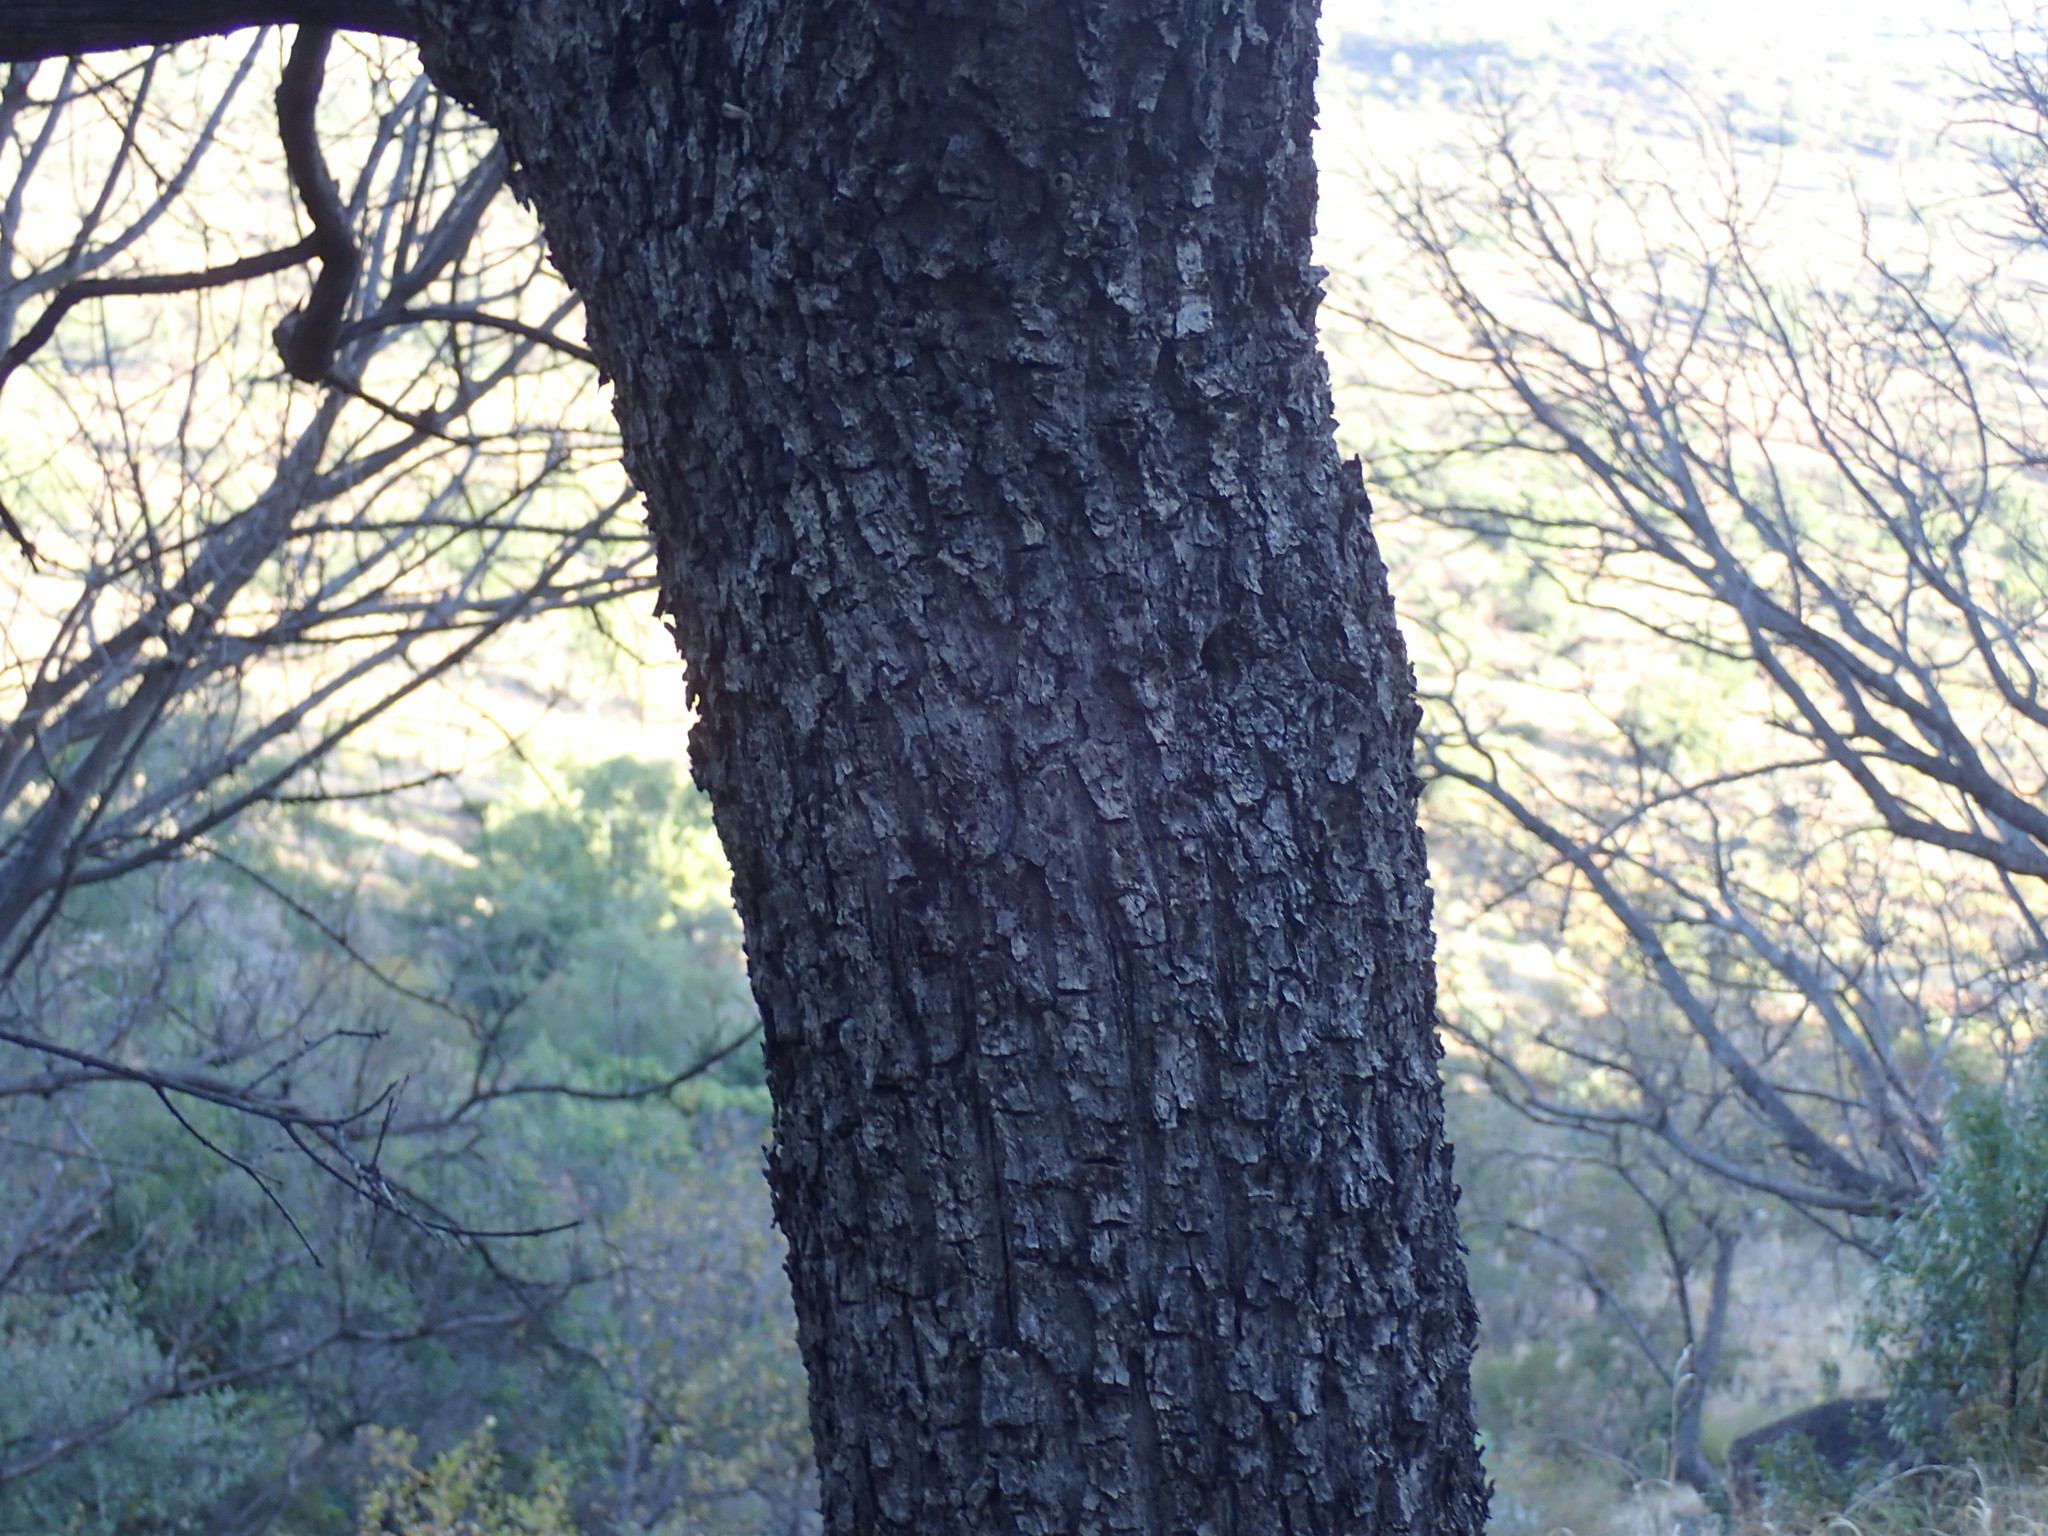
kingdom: Plantae
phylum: Tracheophyta
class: Magnoliopsida
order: Rosales
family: Rhamnaceae
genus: Phyllogeiton
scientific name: Phyllogeiton zeyheri
